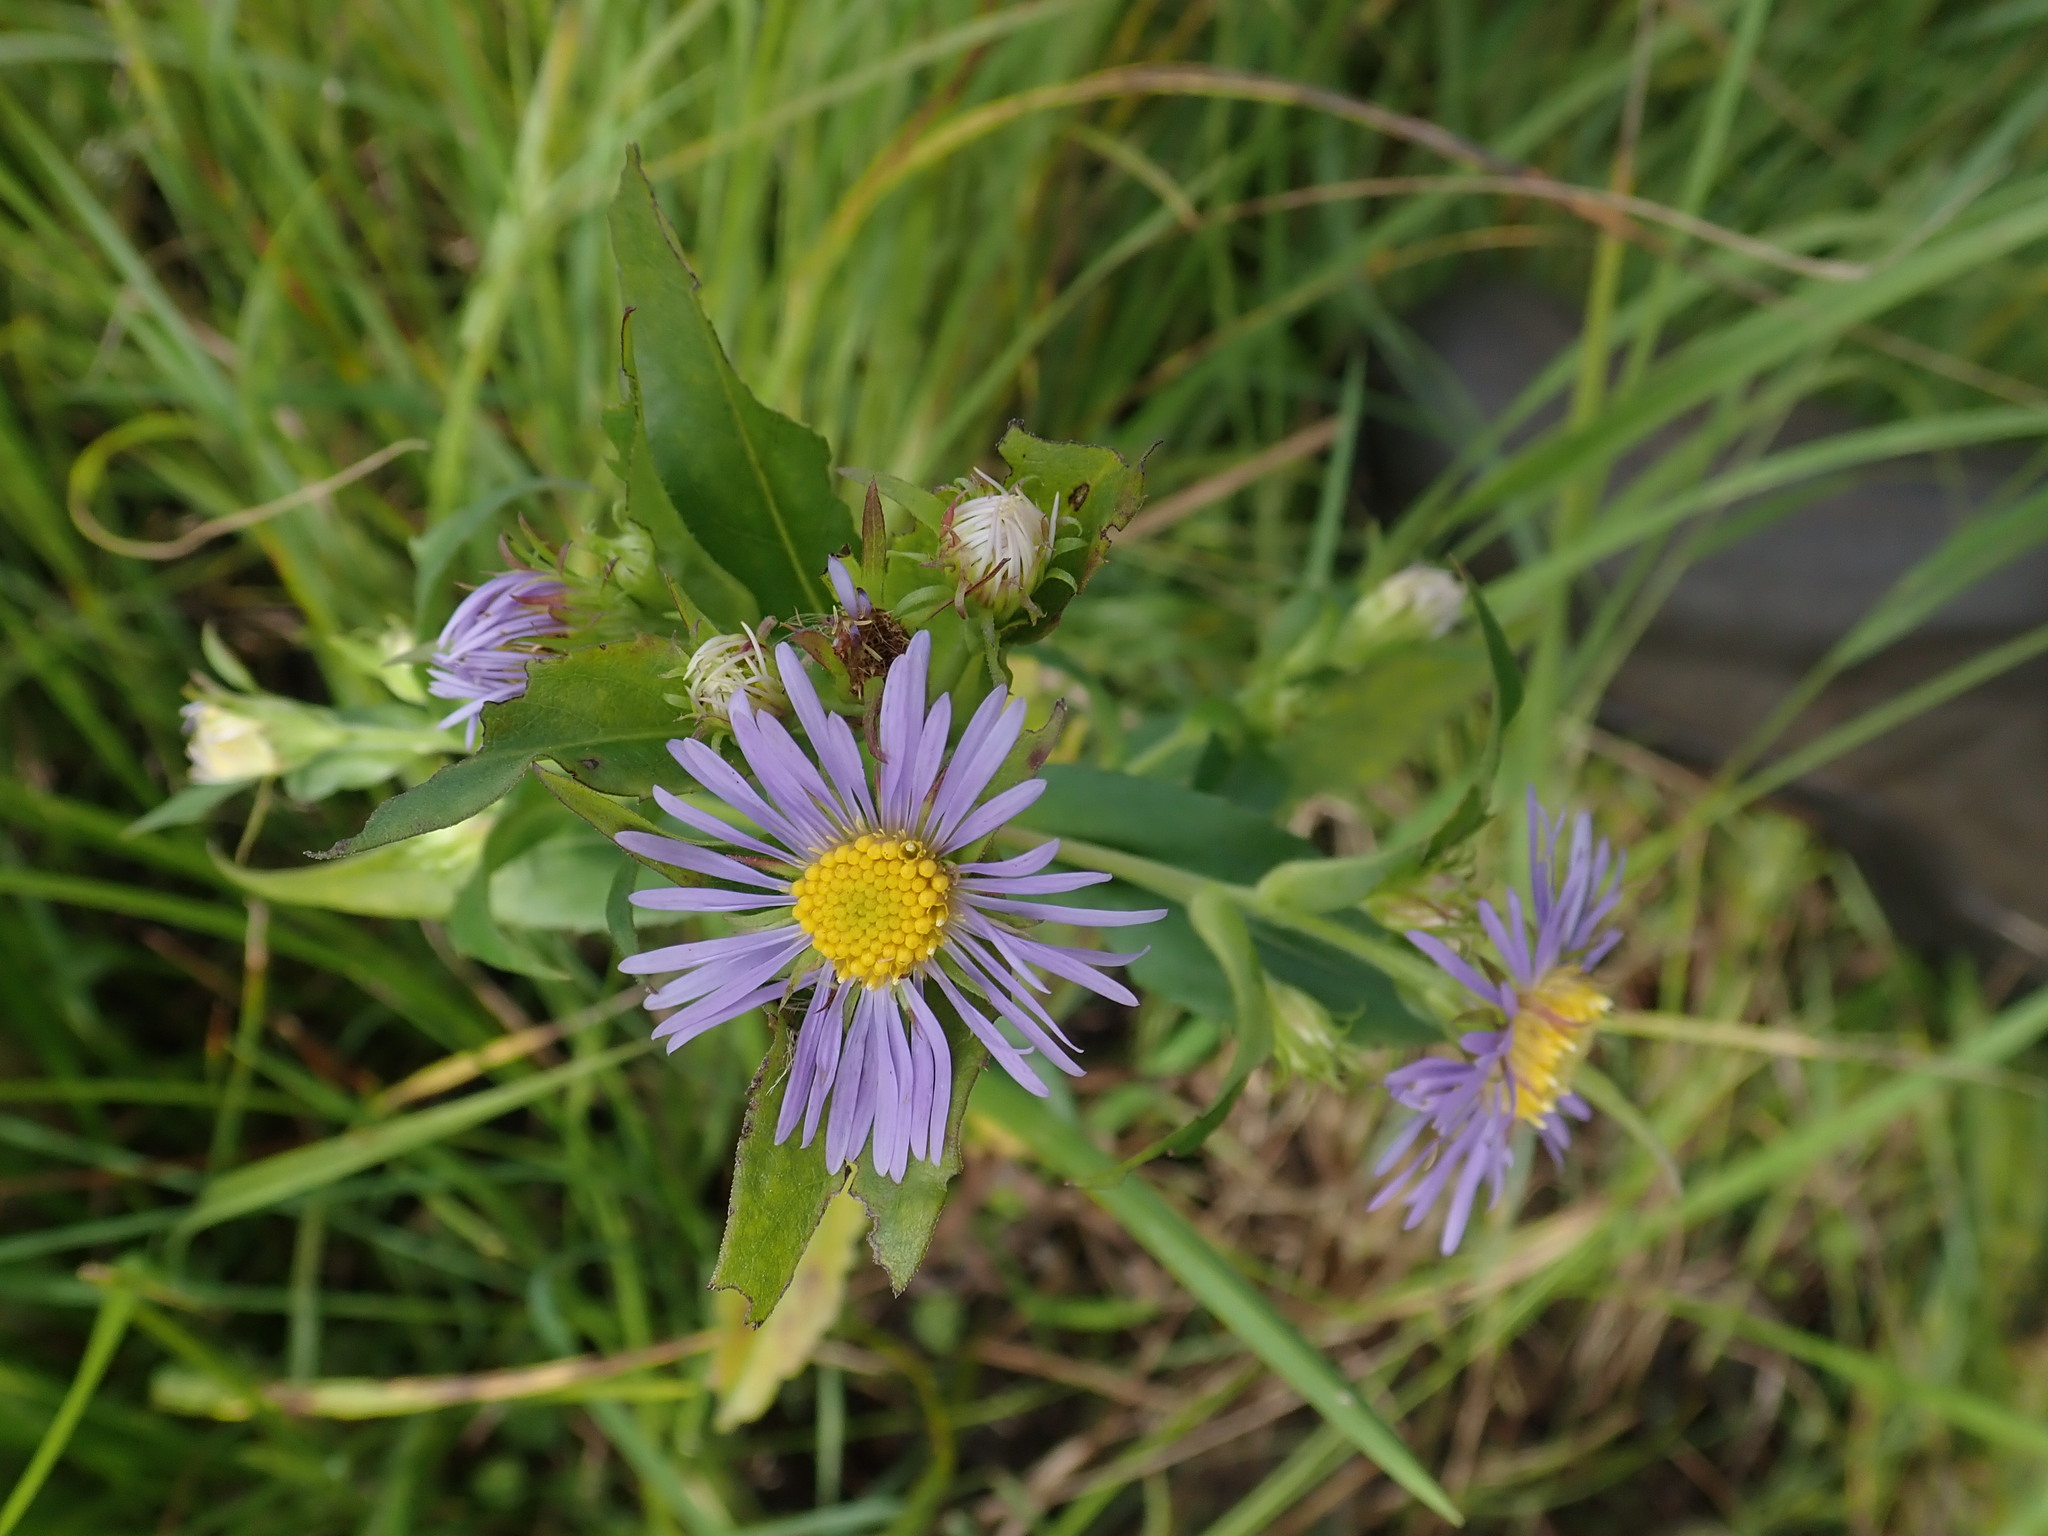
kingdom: Plantae
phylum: Tracheophyta
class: Magnoliopsida
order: Asterales
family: Asteraceae
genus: Symphyotrichum
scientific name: Symphyotrichum puniceum
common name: Bog aster
